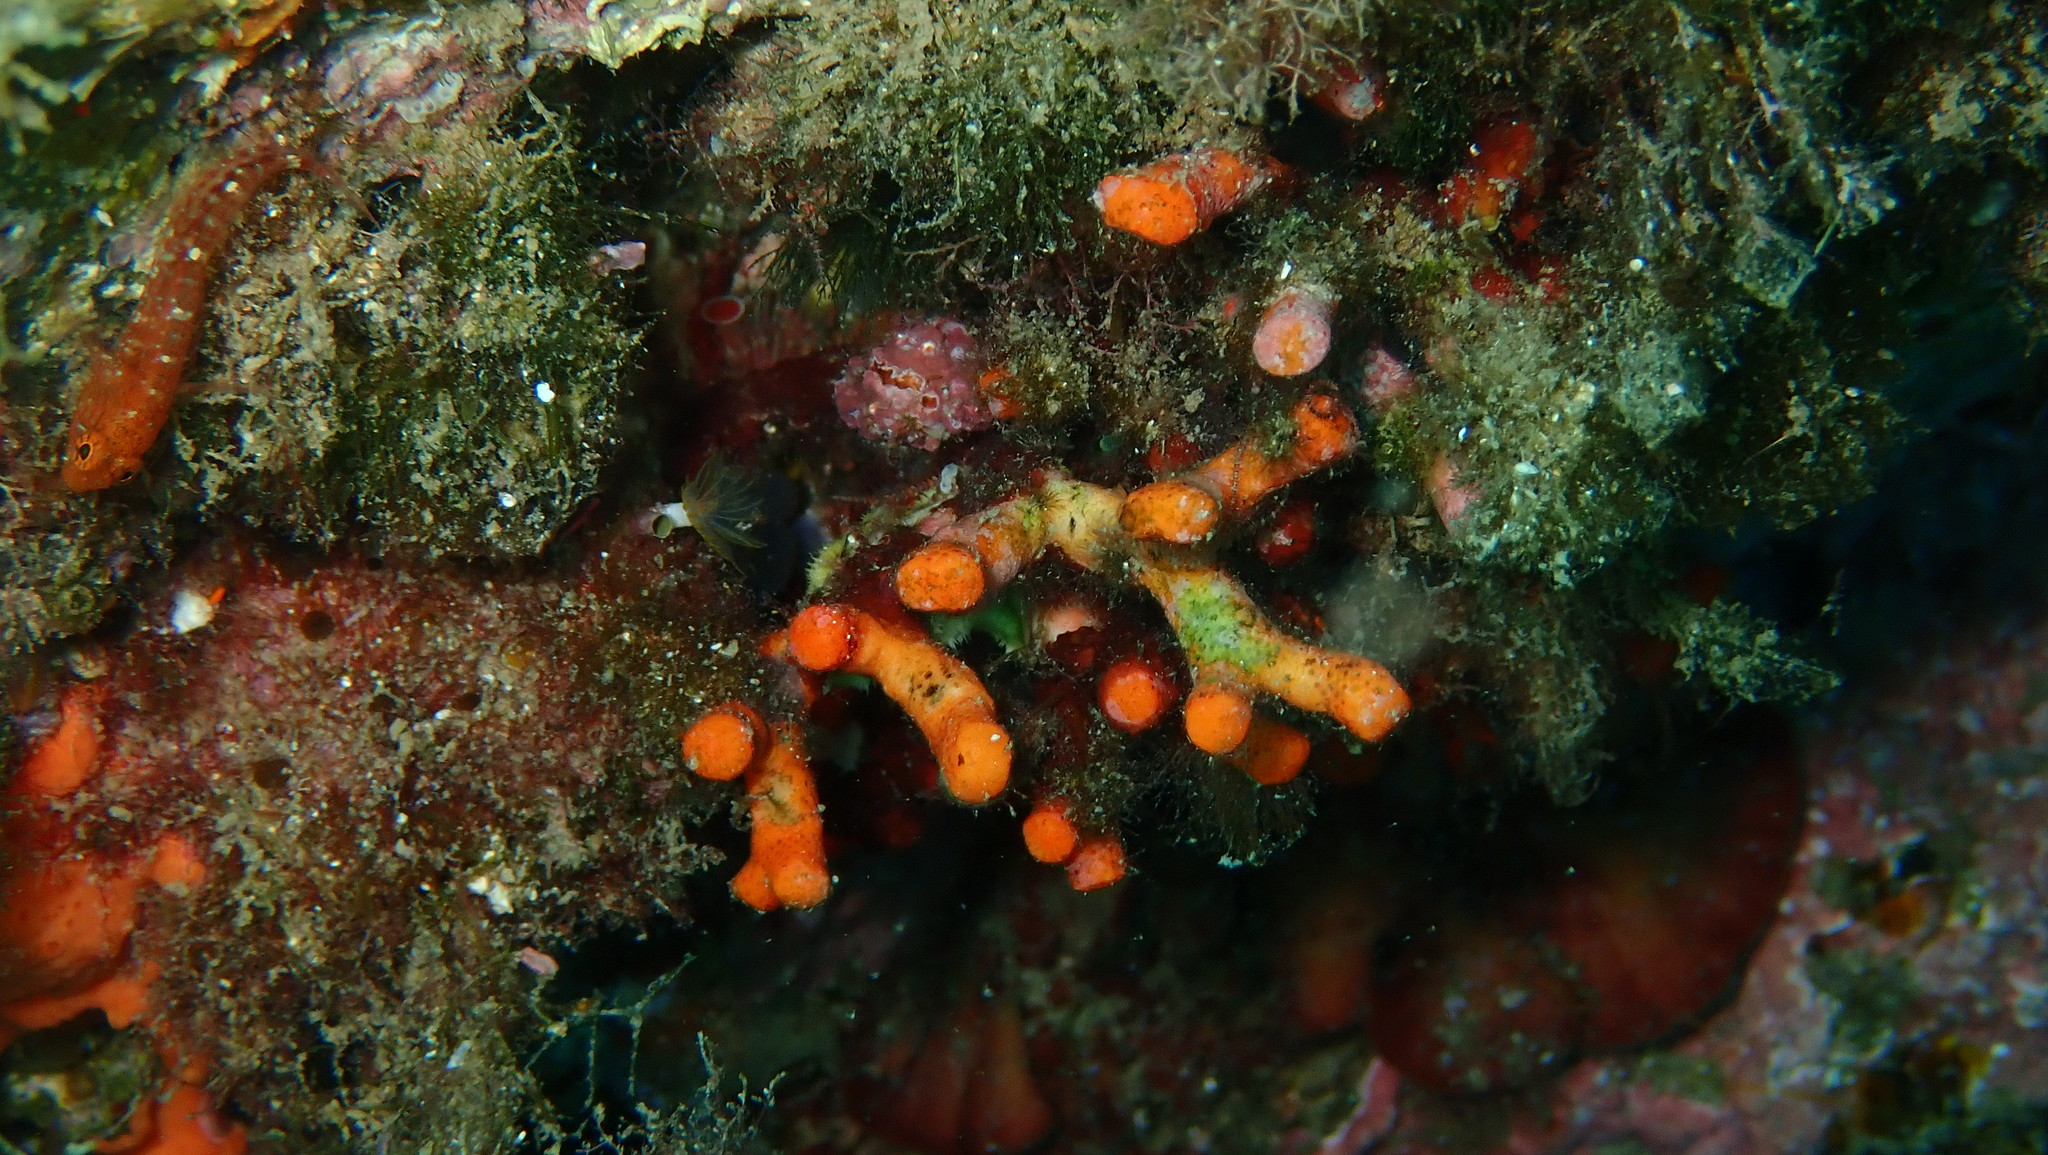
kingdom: Animalia
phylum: Bryozoa
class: Gymnolaemata
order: Cheilostomatida
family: Myriaporidae
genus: Myriapora
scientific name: Myriapora truncata
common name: False coral
